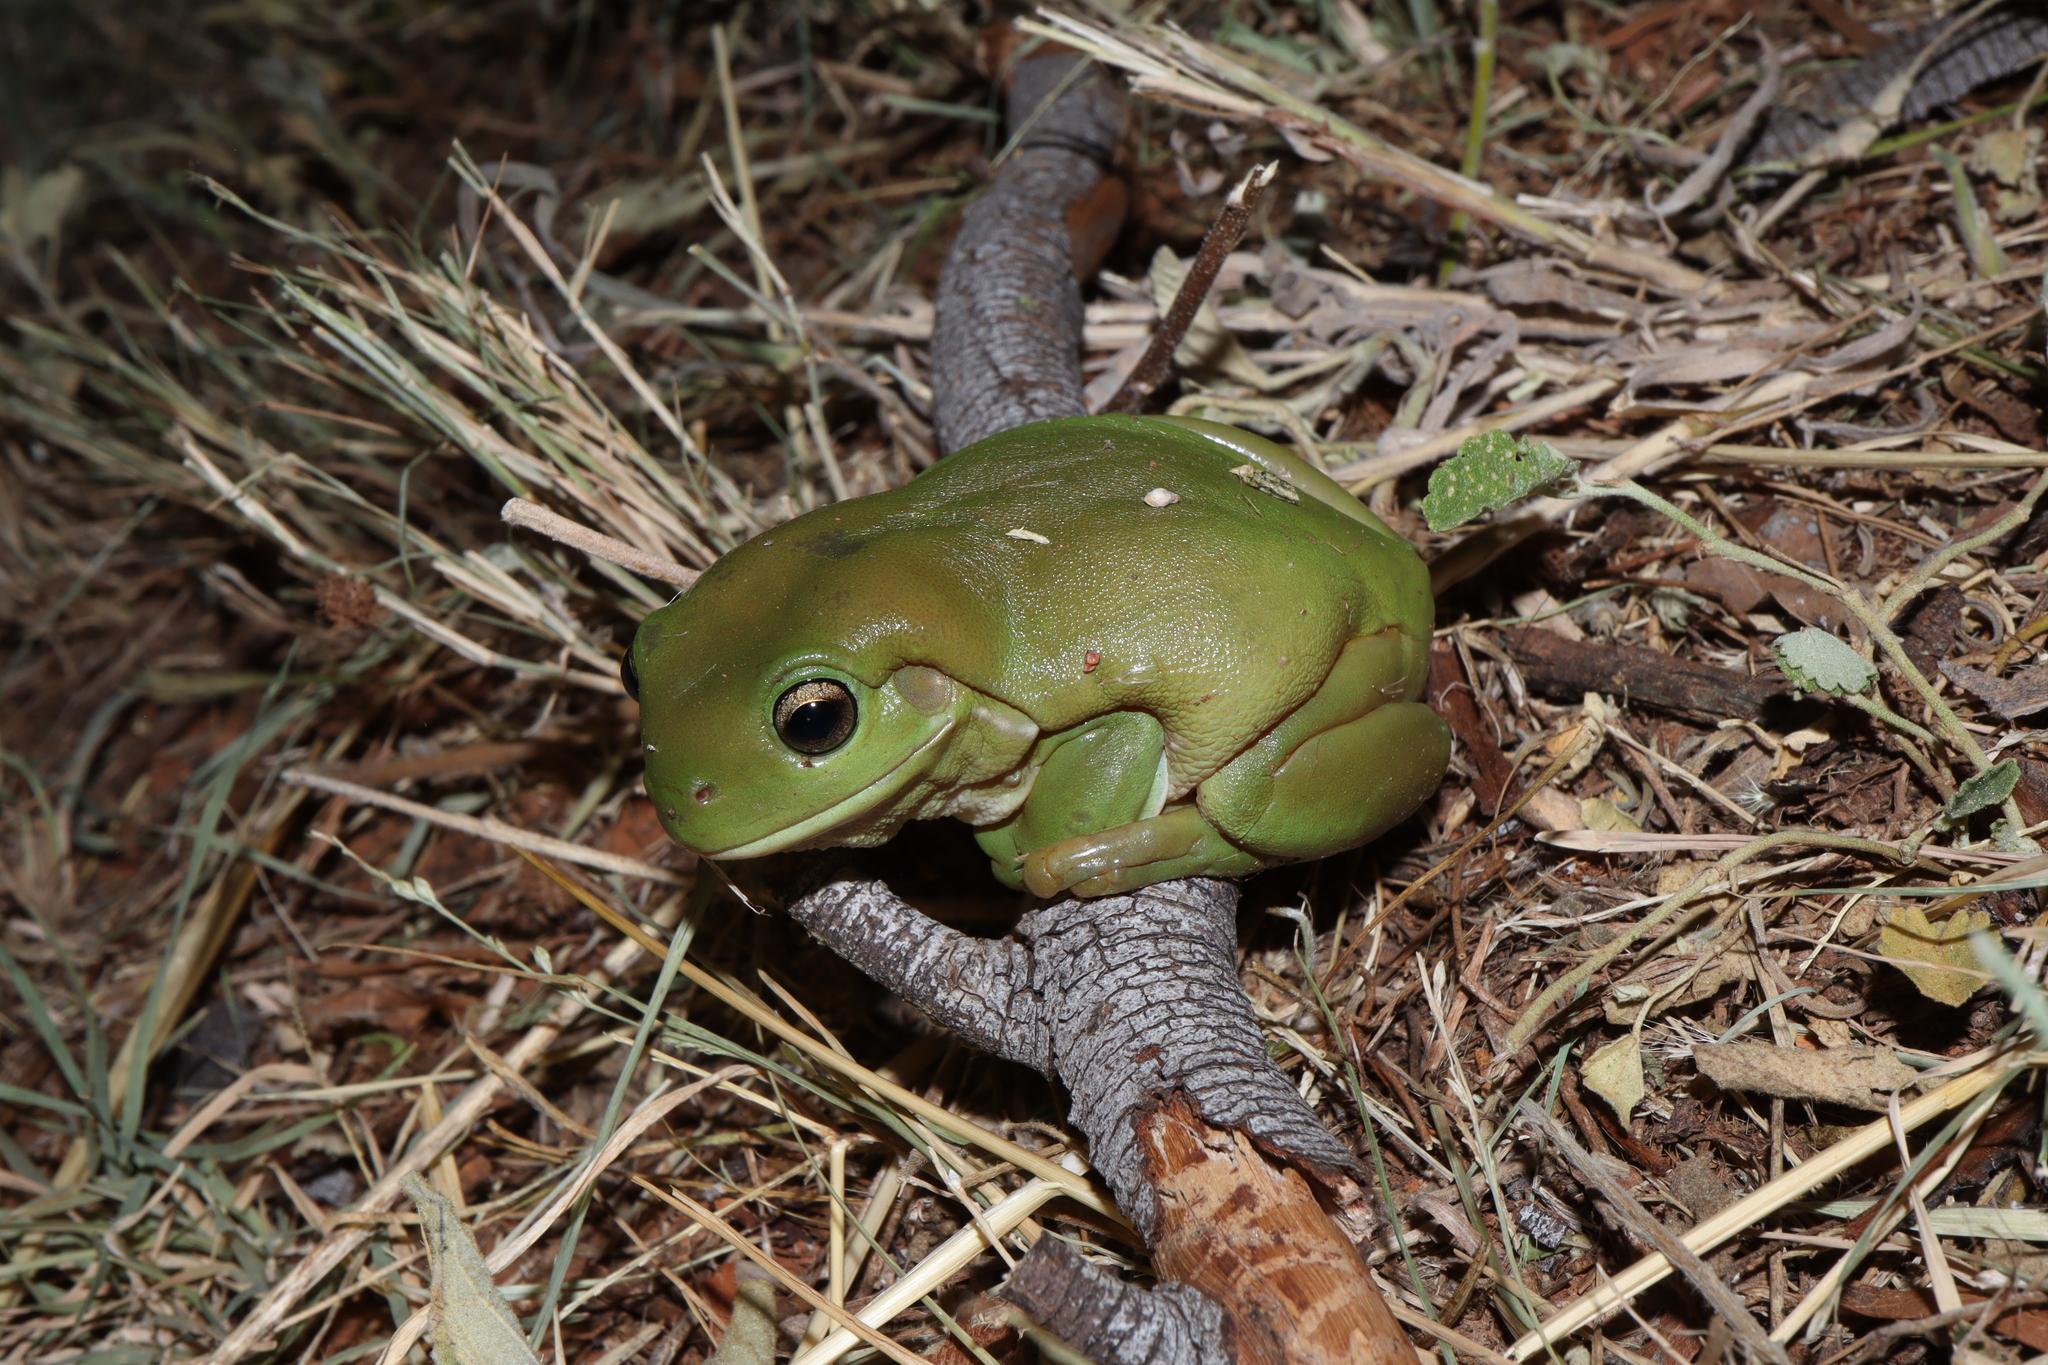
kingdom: Animalia
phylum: Chordata
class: Amphibia
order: Anura
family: Pelodryadidae
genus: Ranoidea
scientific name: Ranoidea caerulea
